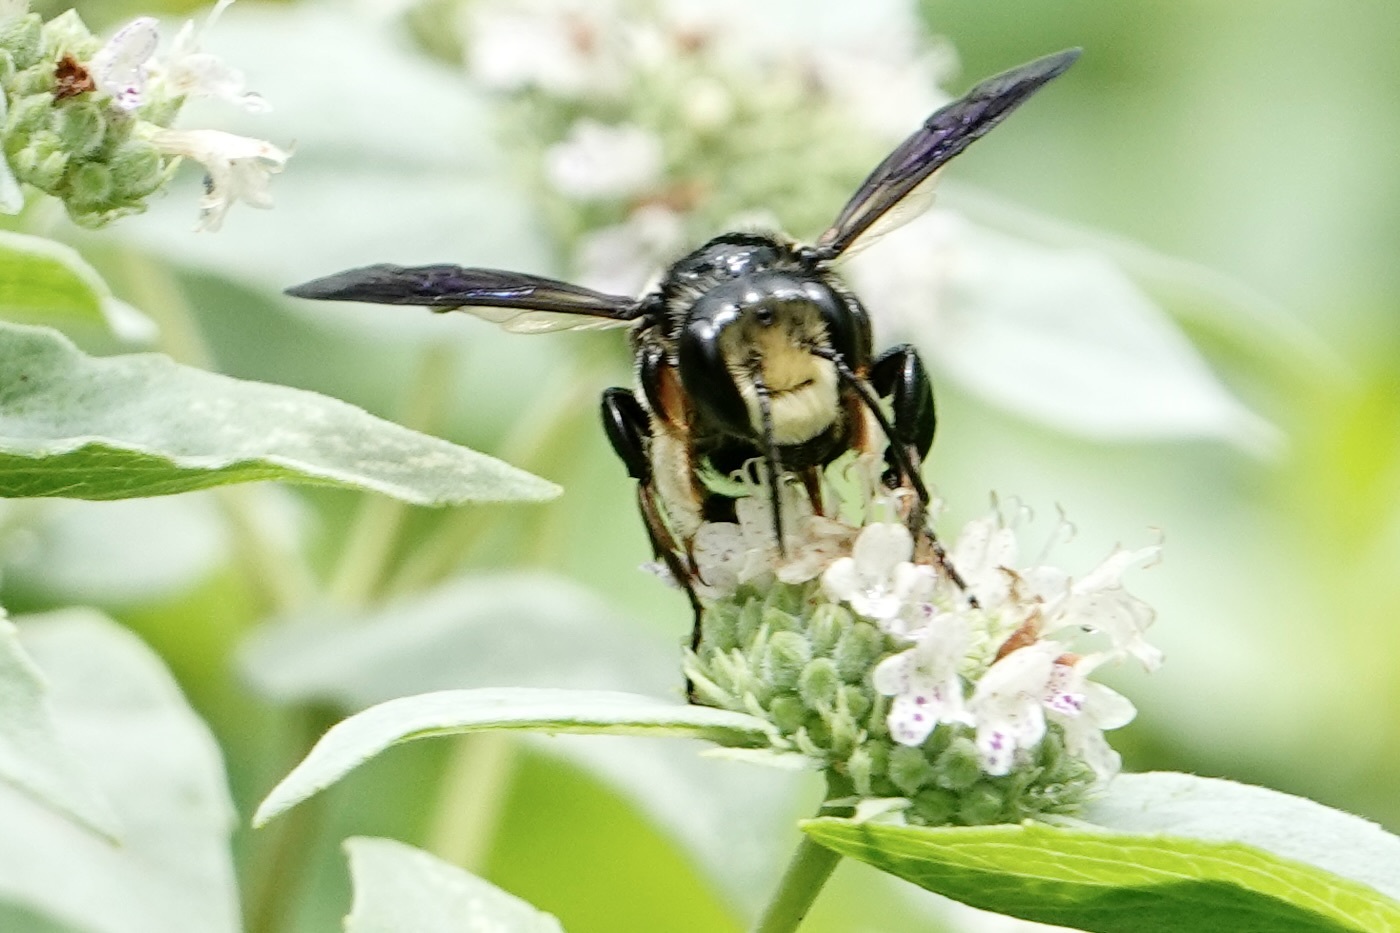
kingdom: Animalia
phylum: Arthropoda
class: Insecta
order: Hymenoptera
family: Megachilidae
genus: Megachile
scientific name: Megachile xylocopoides
